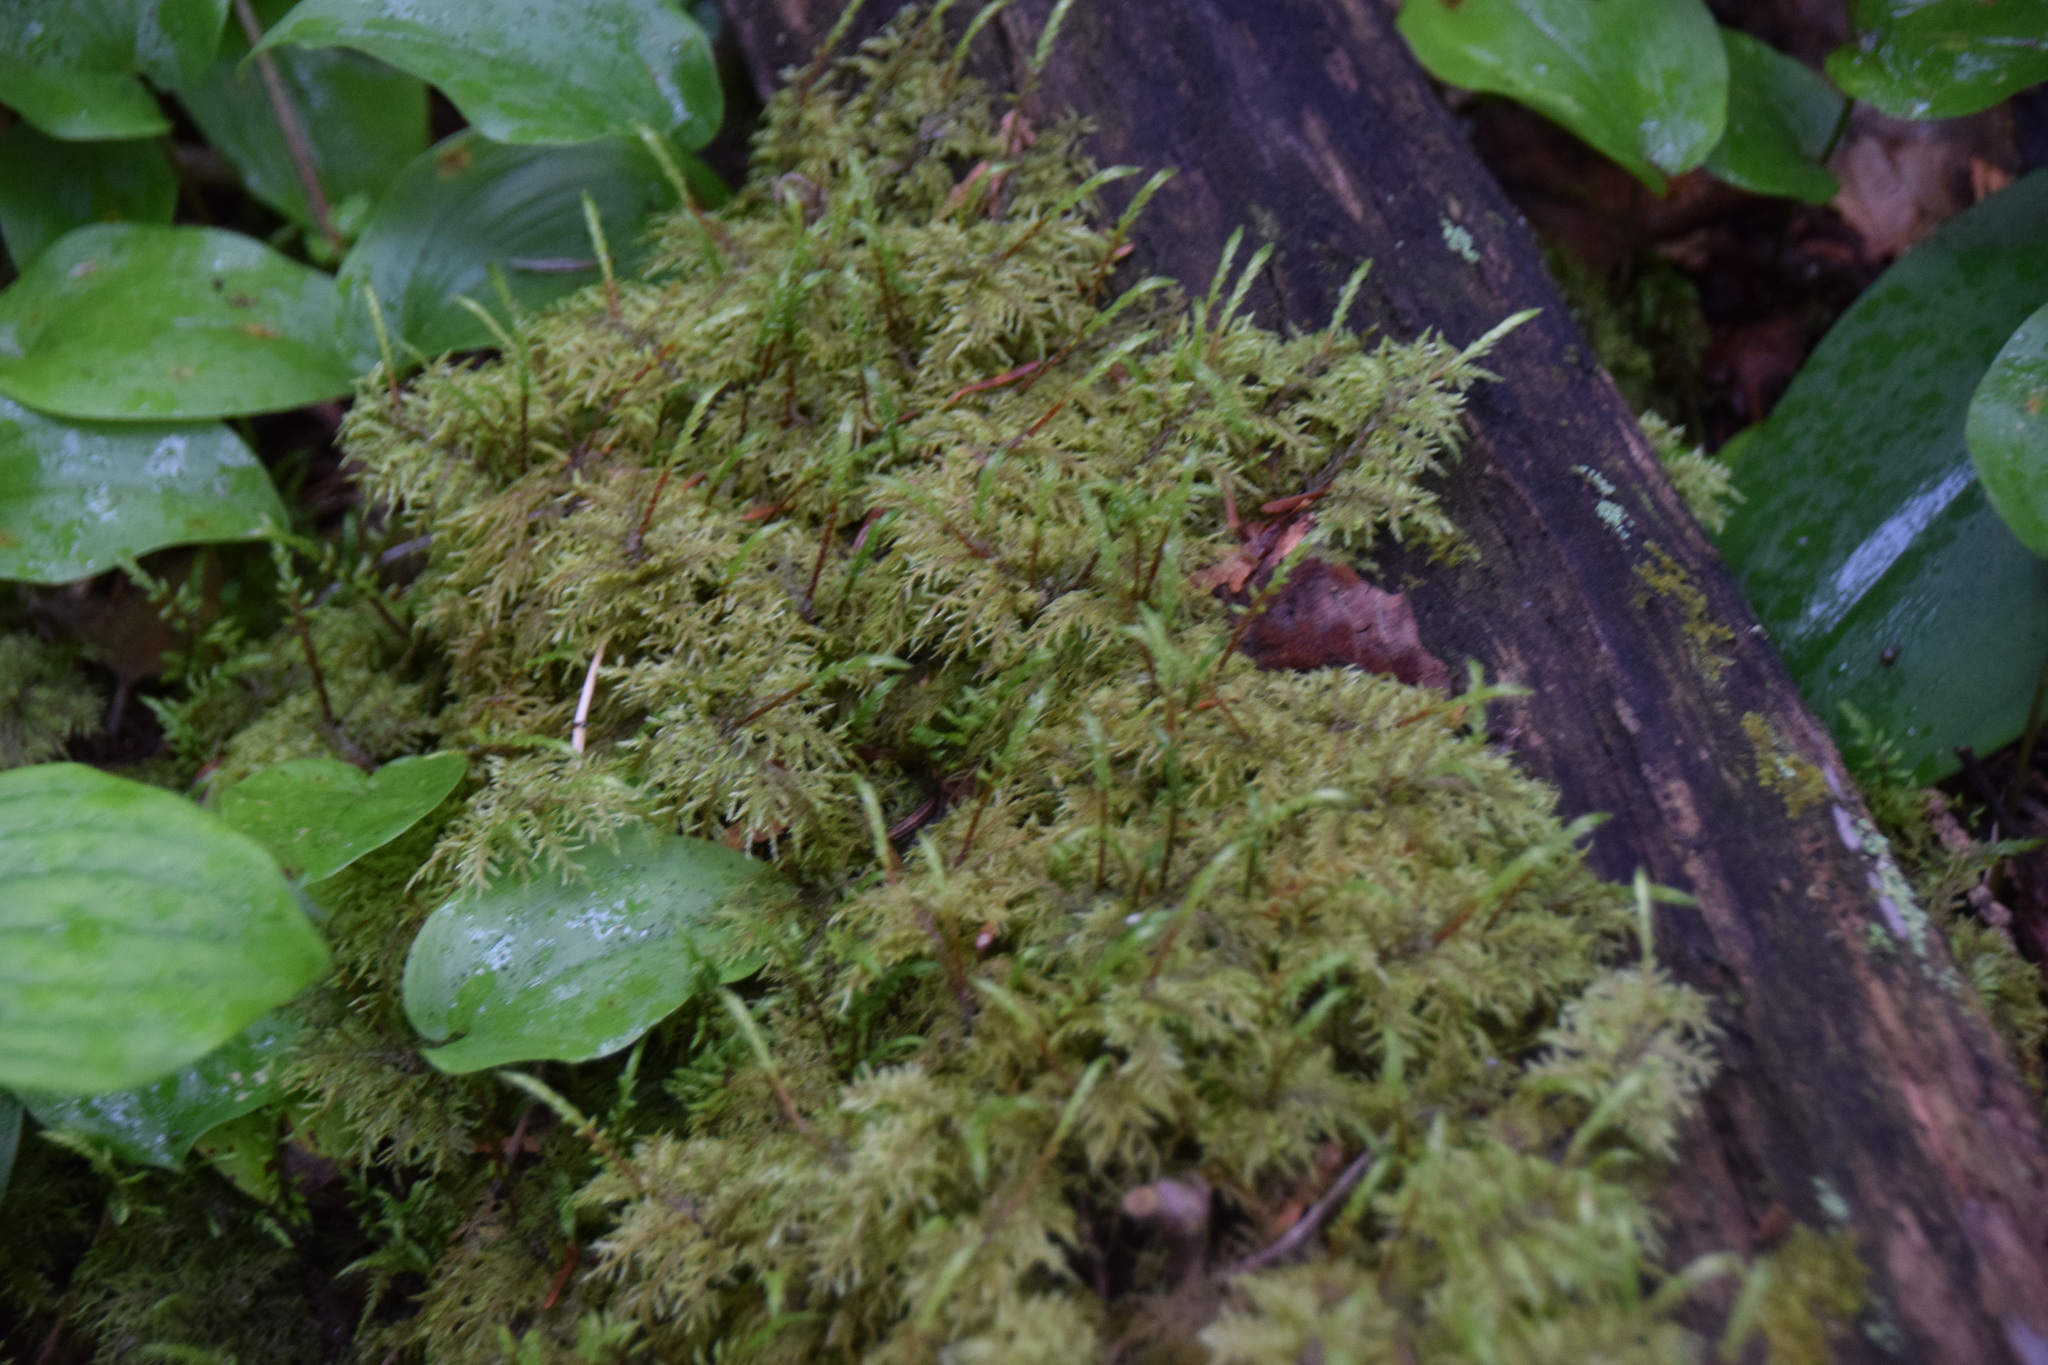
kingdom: Plantae
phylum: Bryophyta
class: Bryopsida
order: Hypnales
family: Hylocomiaceae
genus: Hylocomium
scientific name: Hylocomium splendens
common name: Stairstep moss
